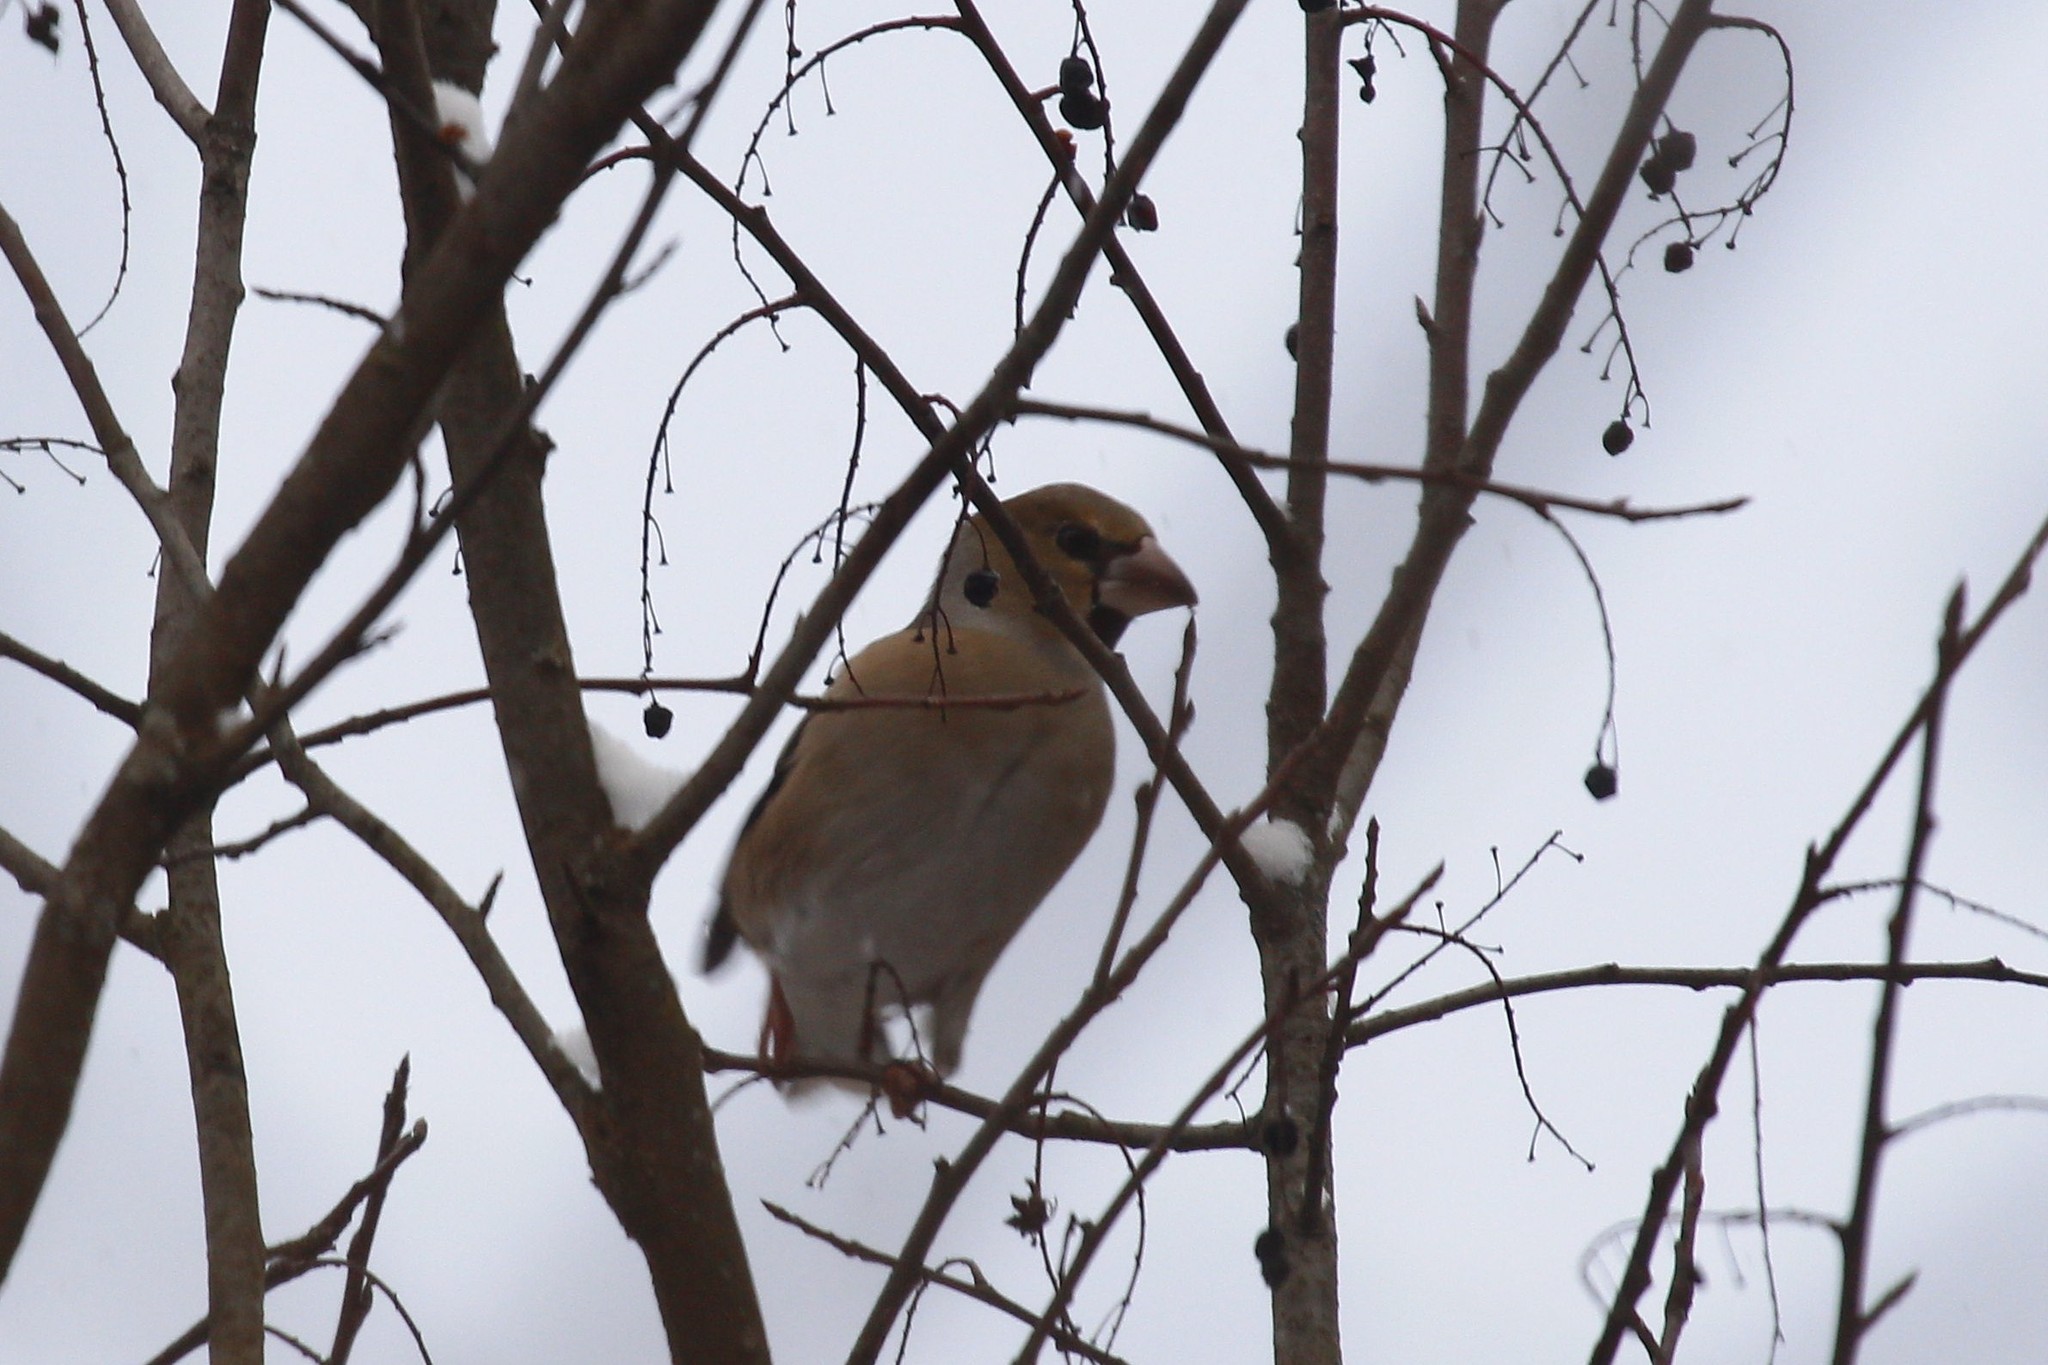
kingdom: Animalia
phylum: Chordata
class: Aves
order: Passeriformes
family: Fringillidae
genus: Coccothraustes
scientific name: Coccothraustes coccothraustes
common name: Hawfinch
